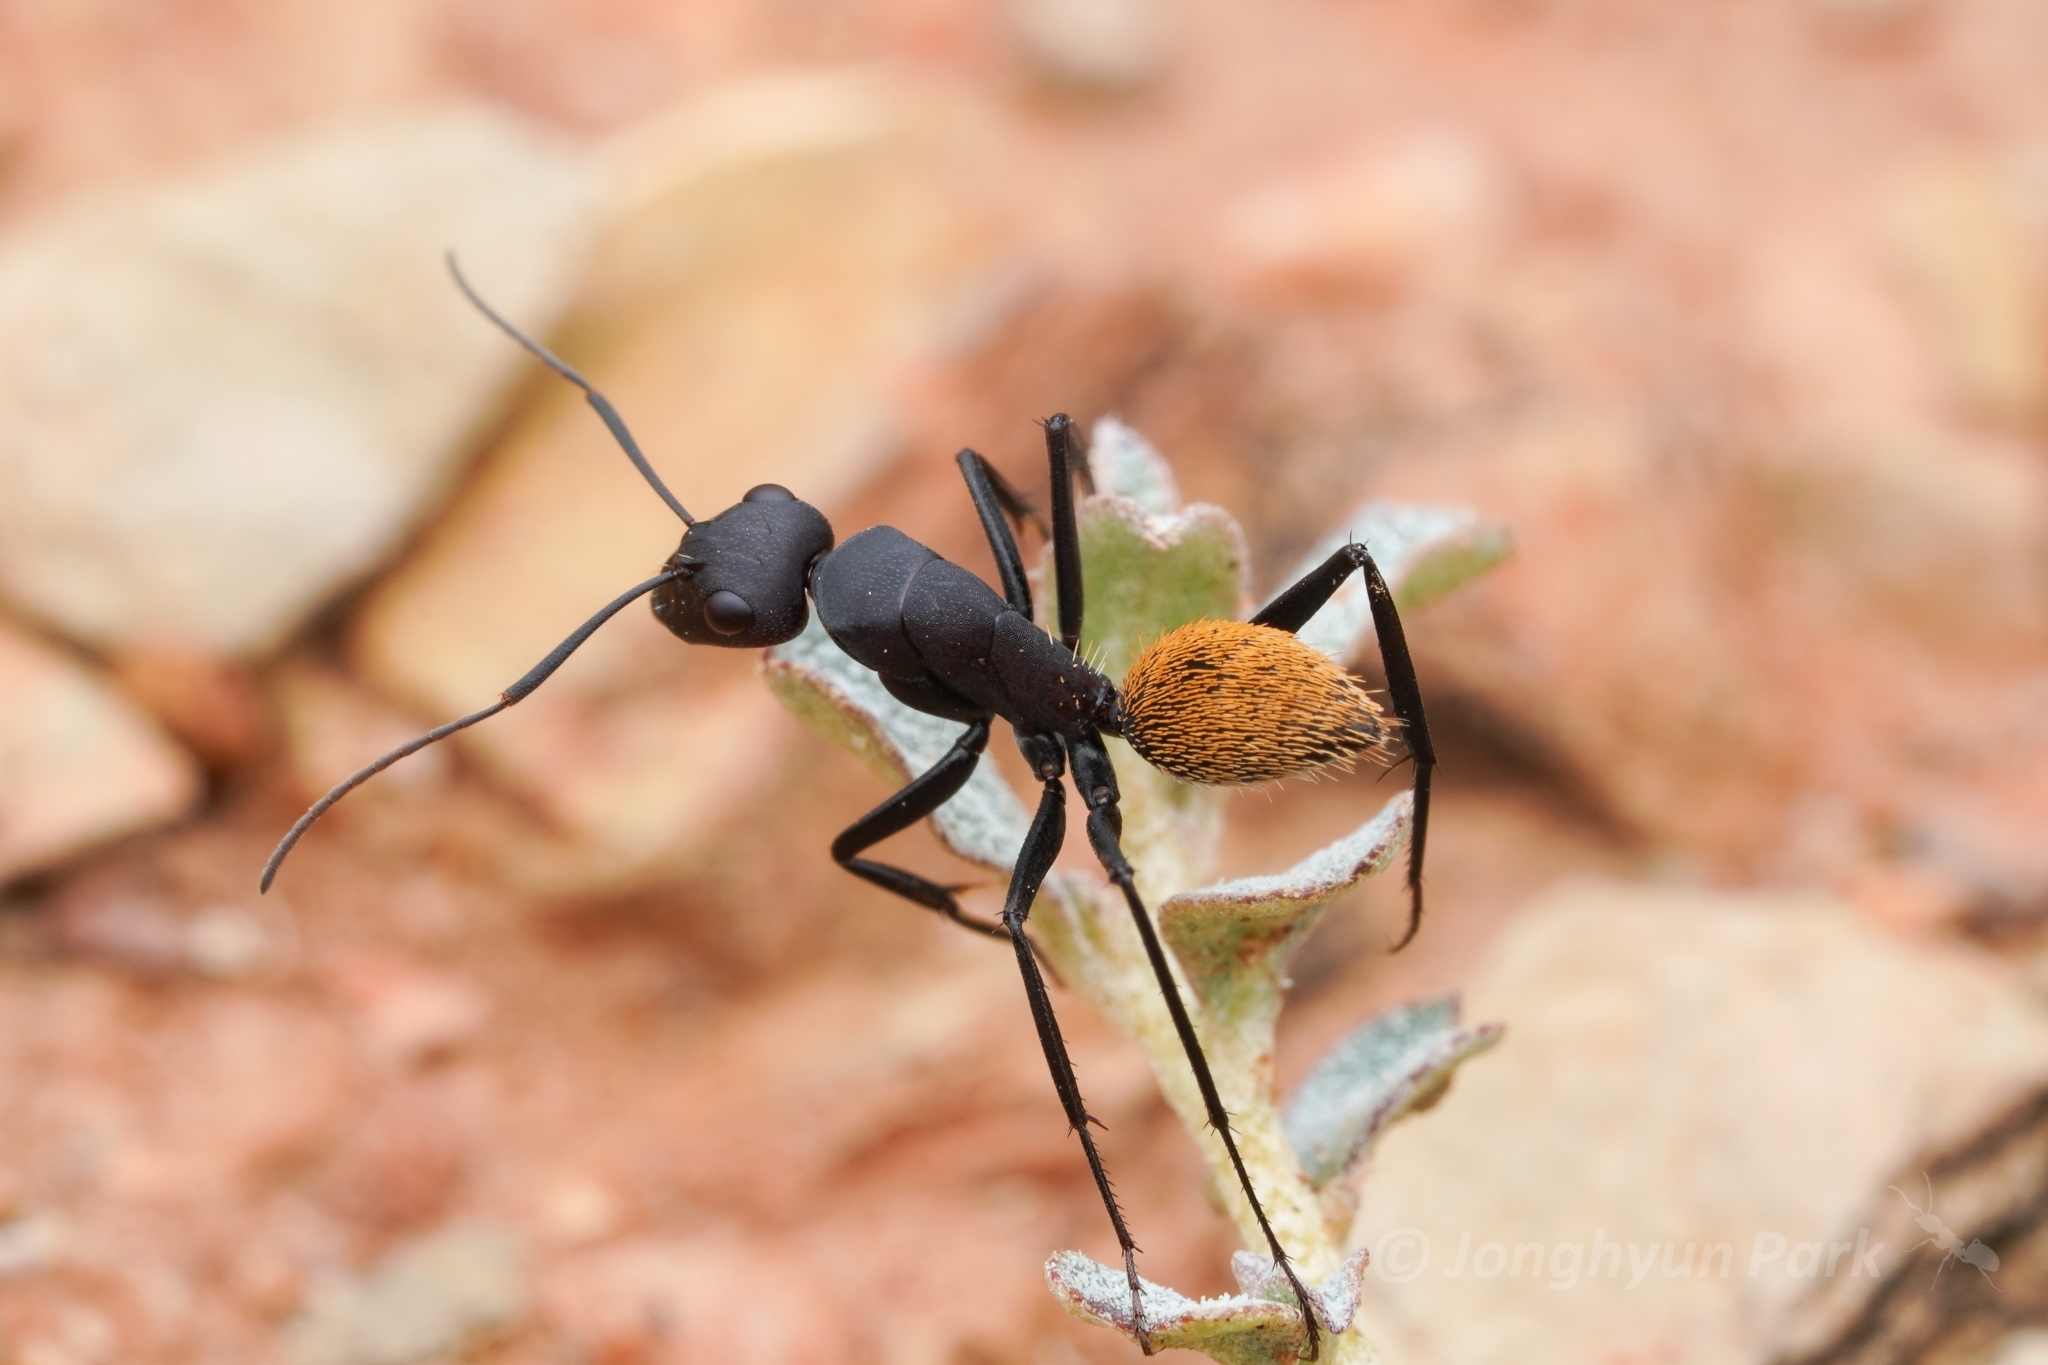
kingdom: Animalia
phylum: Arthropoda
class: Insecta
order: Hymenoptera
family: Formicidae
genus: Camponotus
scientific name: Camponotus fulvopilosus
